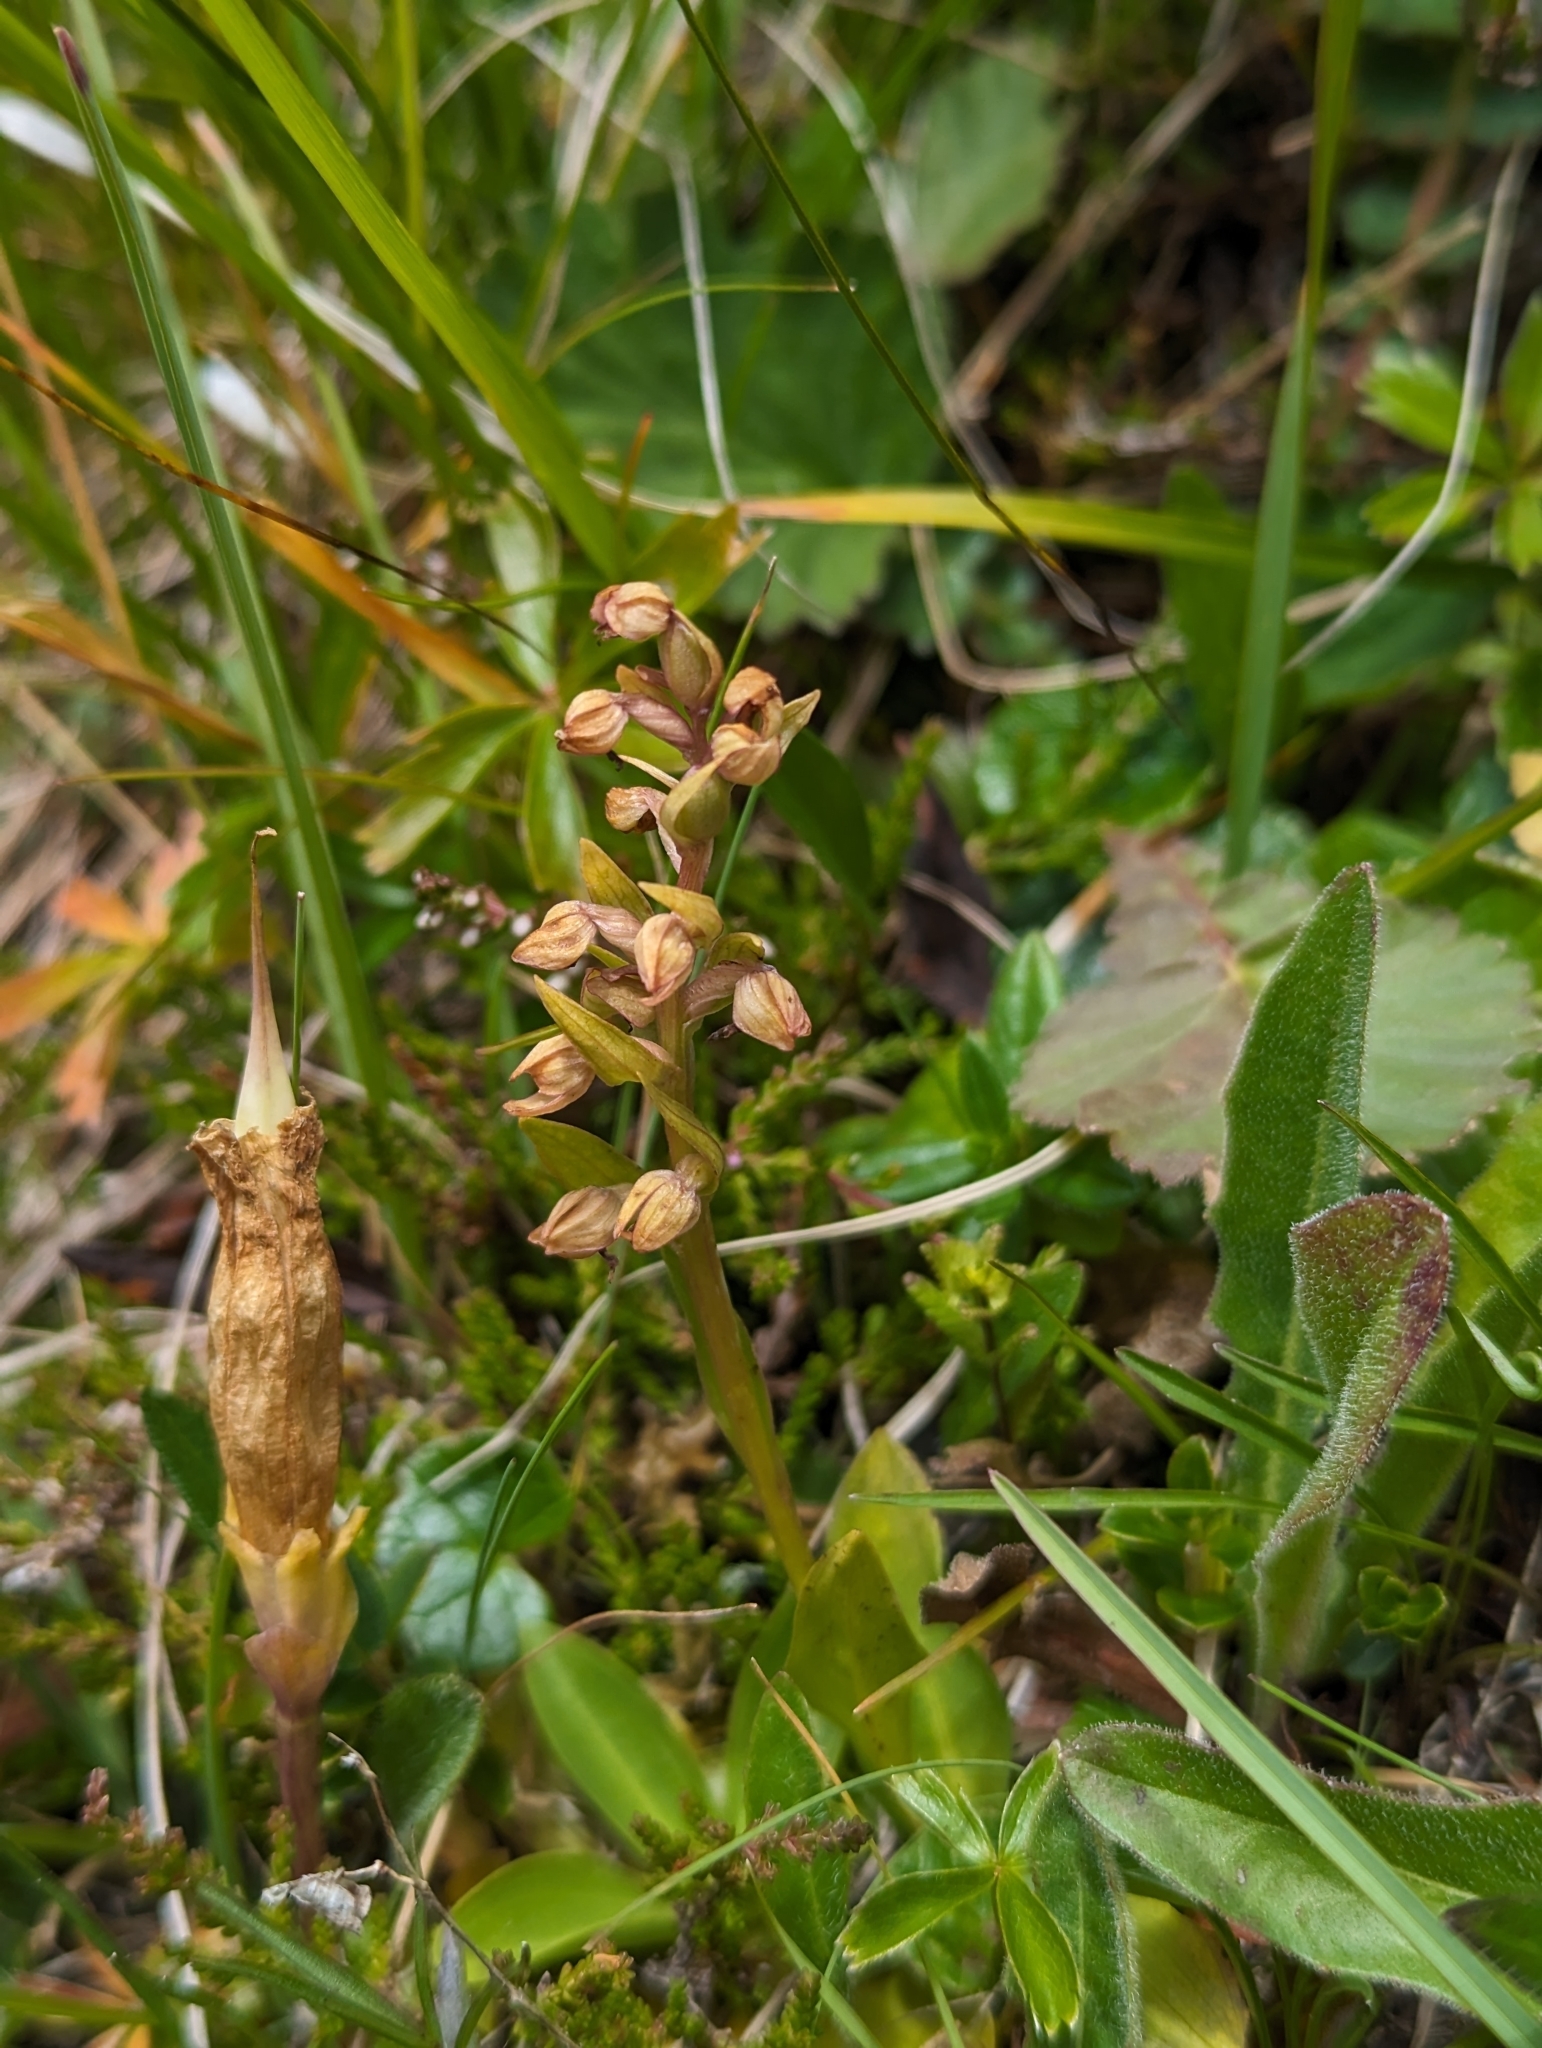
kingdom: Plantae
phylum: Tracheophyta
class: Liliopsida
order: Asparagales
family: Orchidaceae
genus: Dactylorhiza
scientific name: Dactylorhiza viridis
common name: Longbract frog orchid
